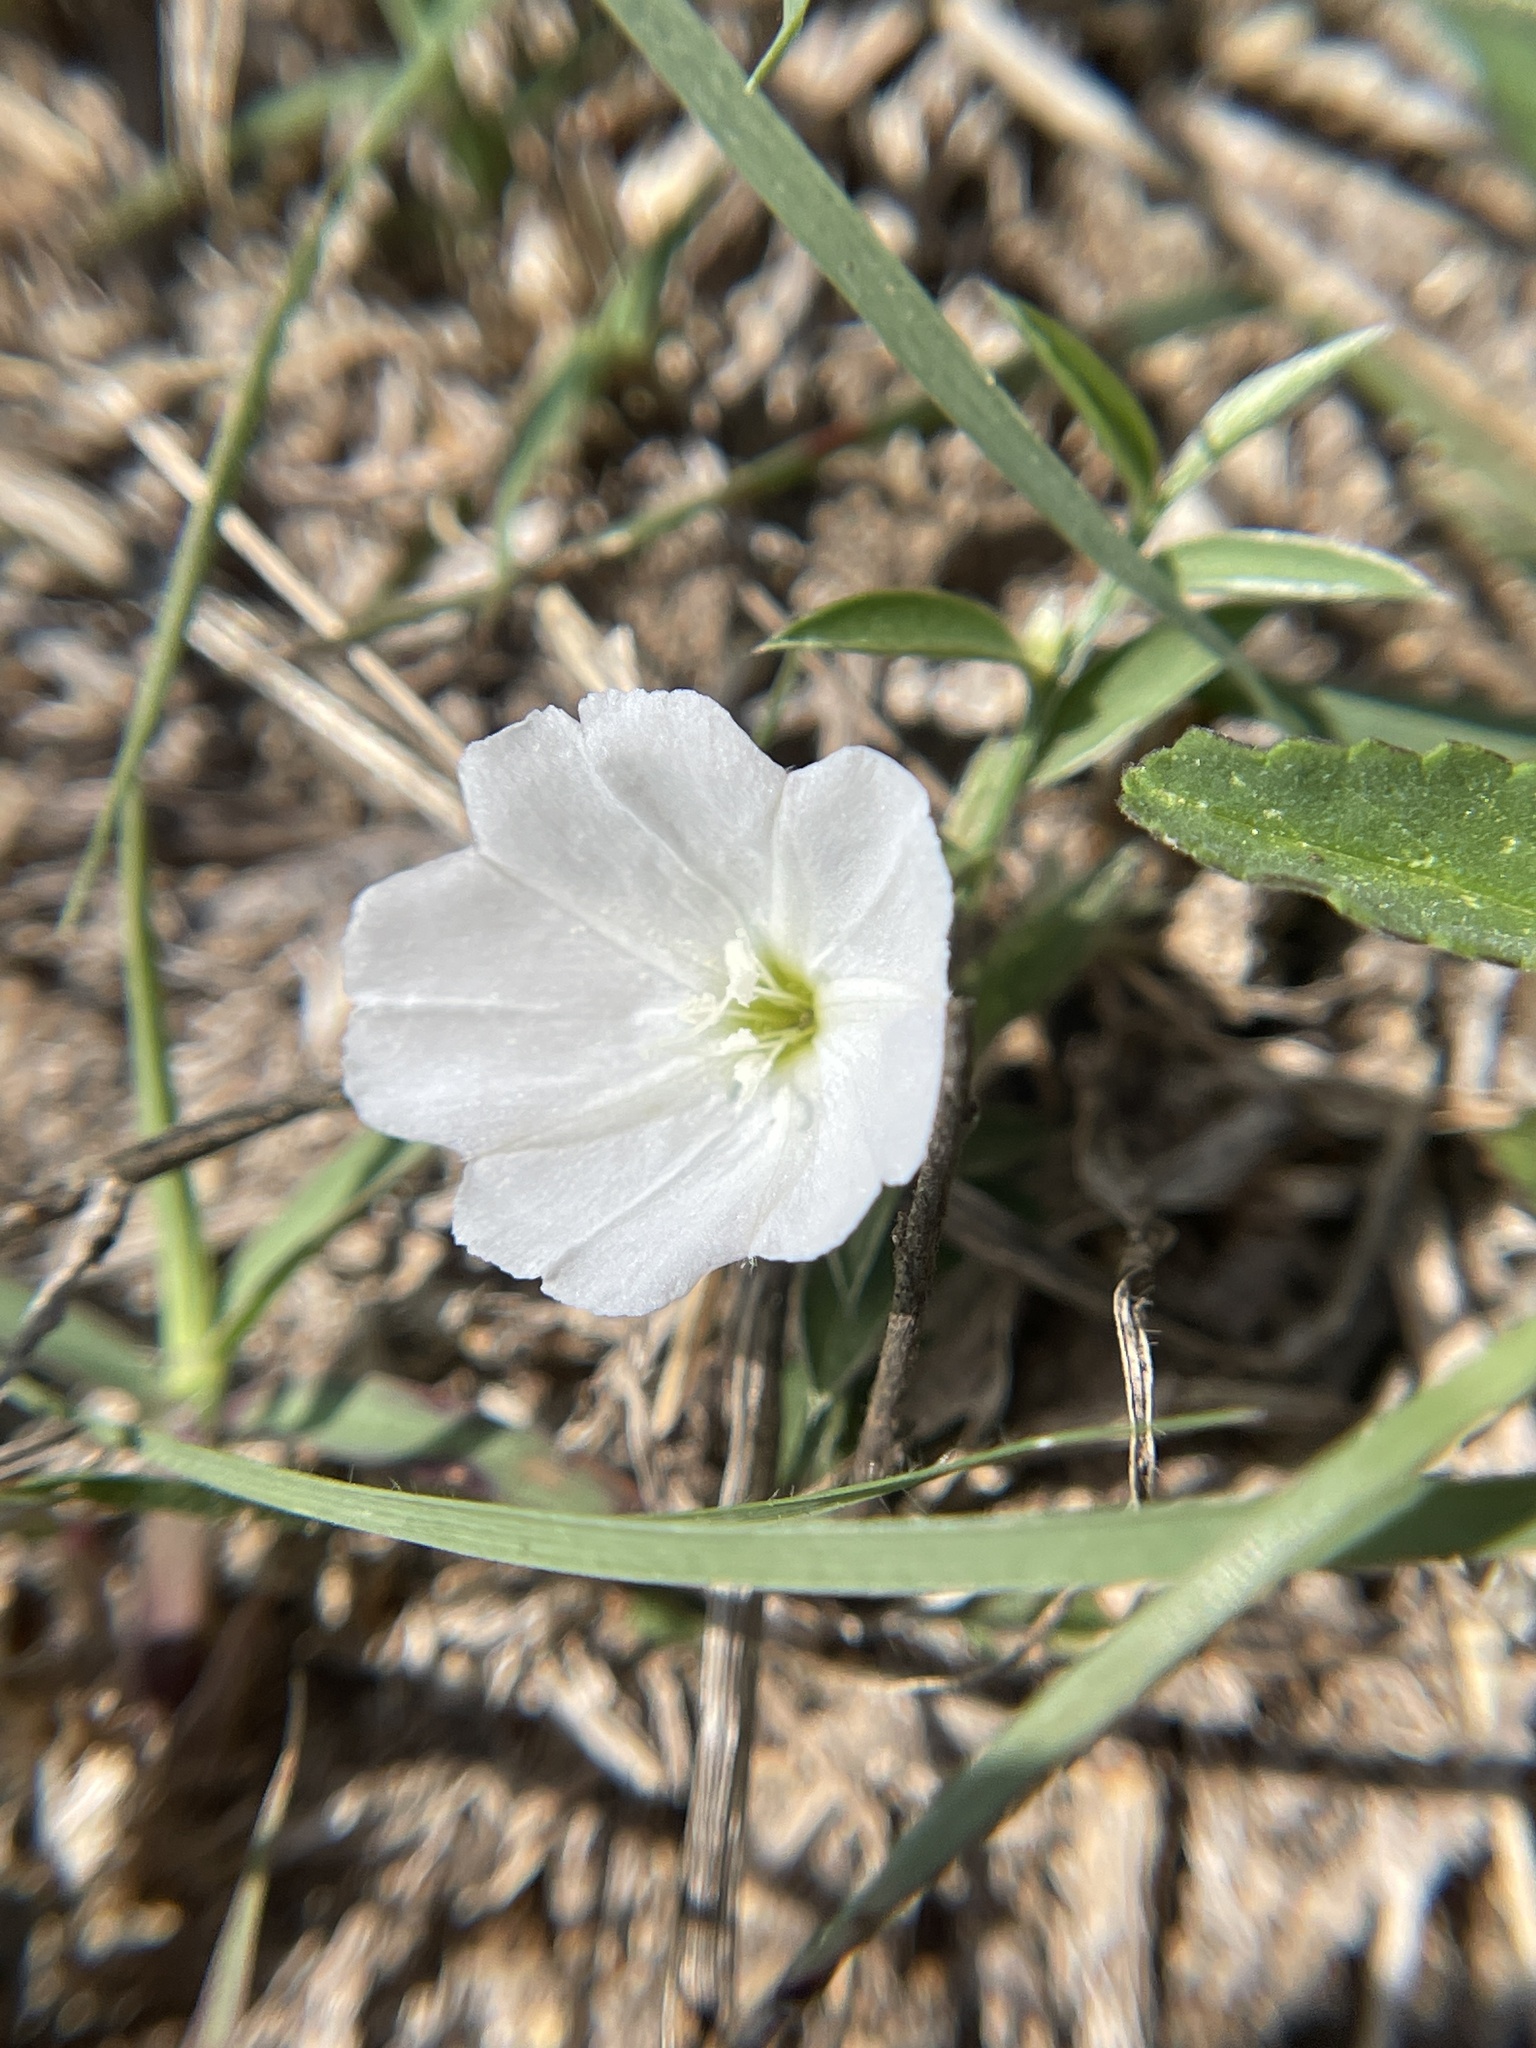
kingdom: Plantae
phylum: Tracheophyta
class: Magnoliopsida
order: Solanales
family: Convolvulaceae
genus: Evolvulus
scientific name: Evolvulus sericeus
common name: Blue dots
